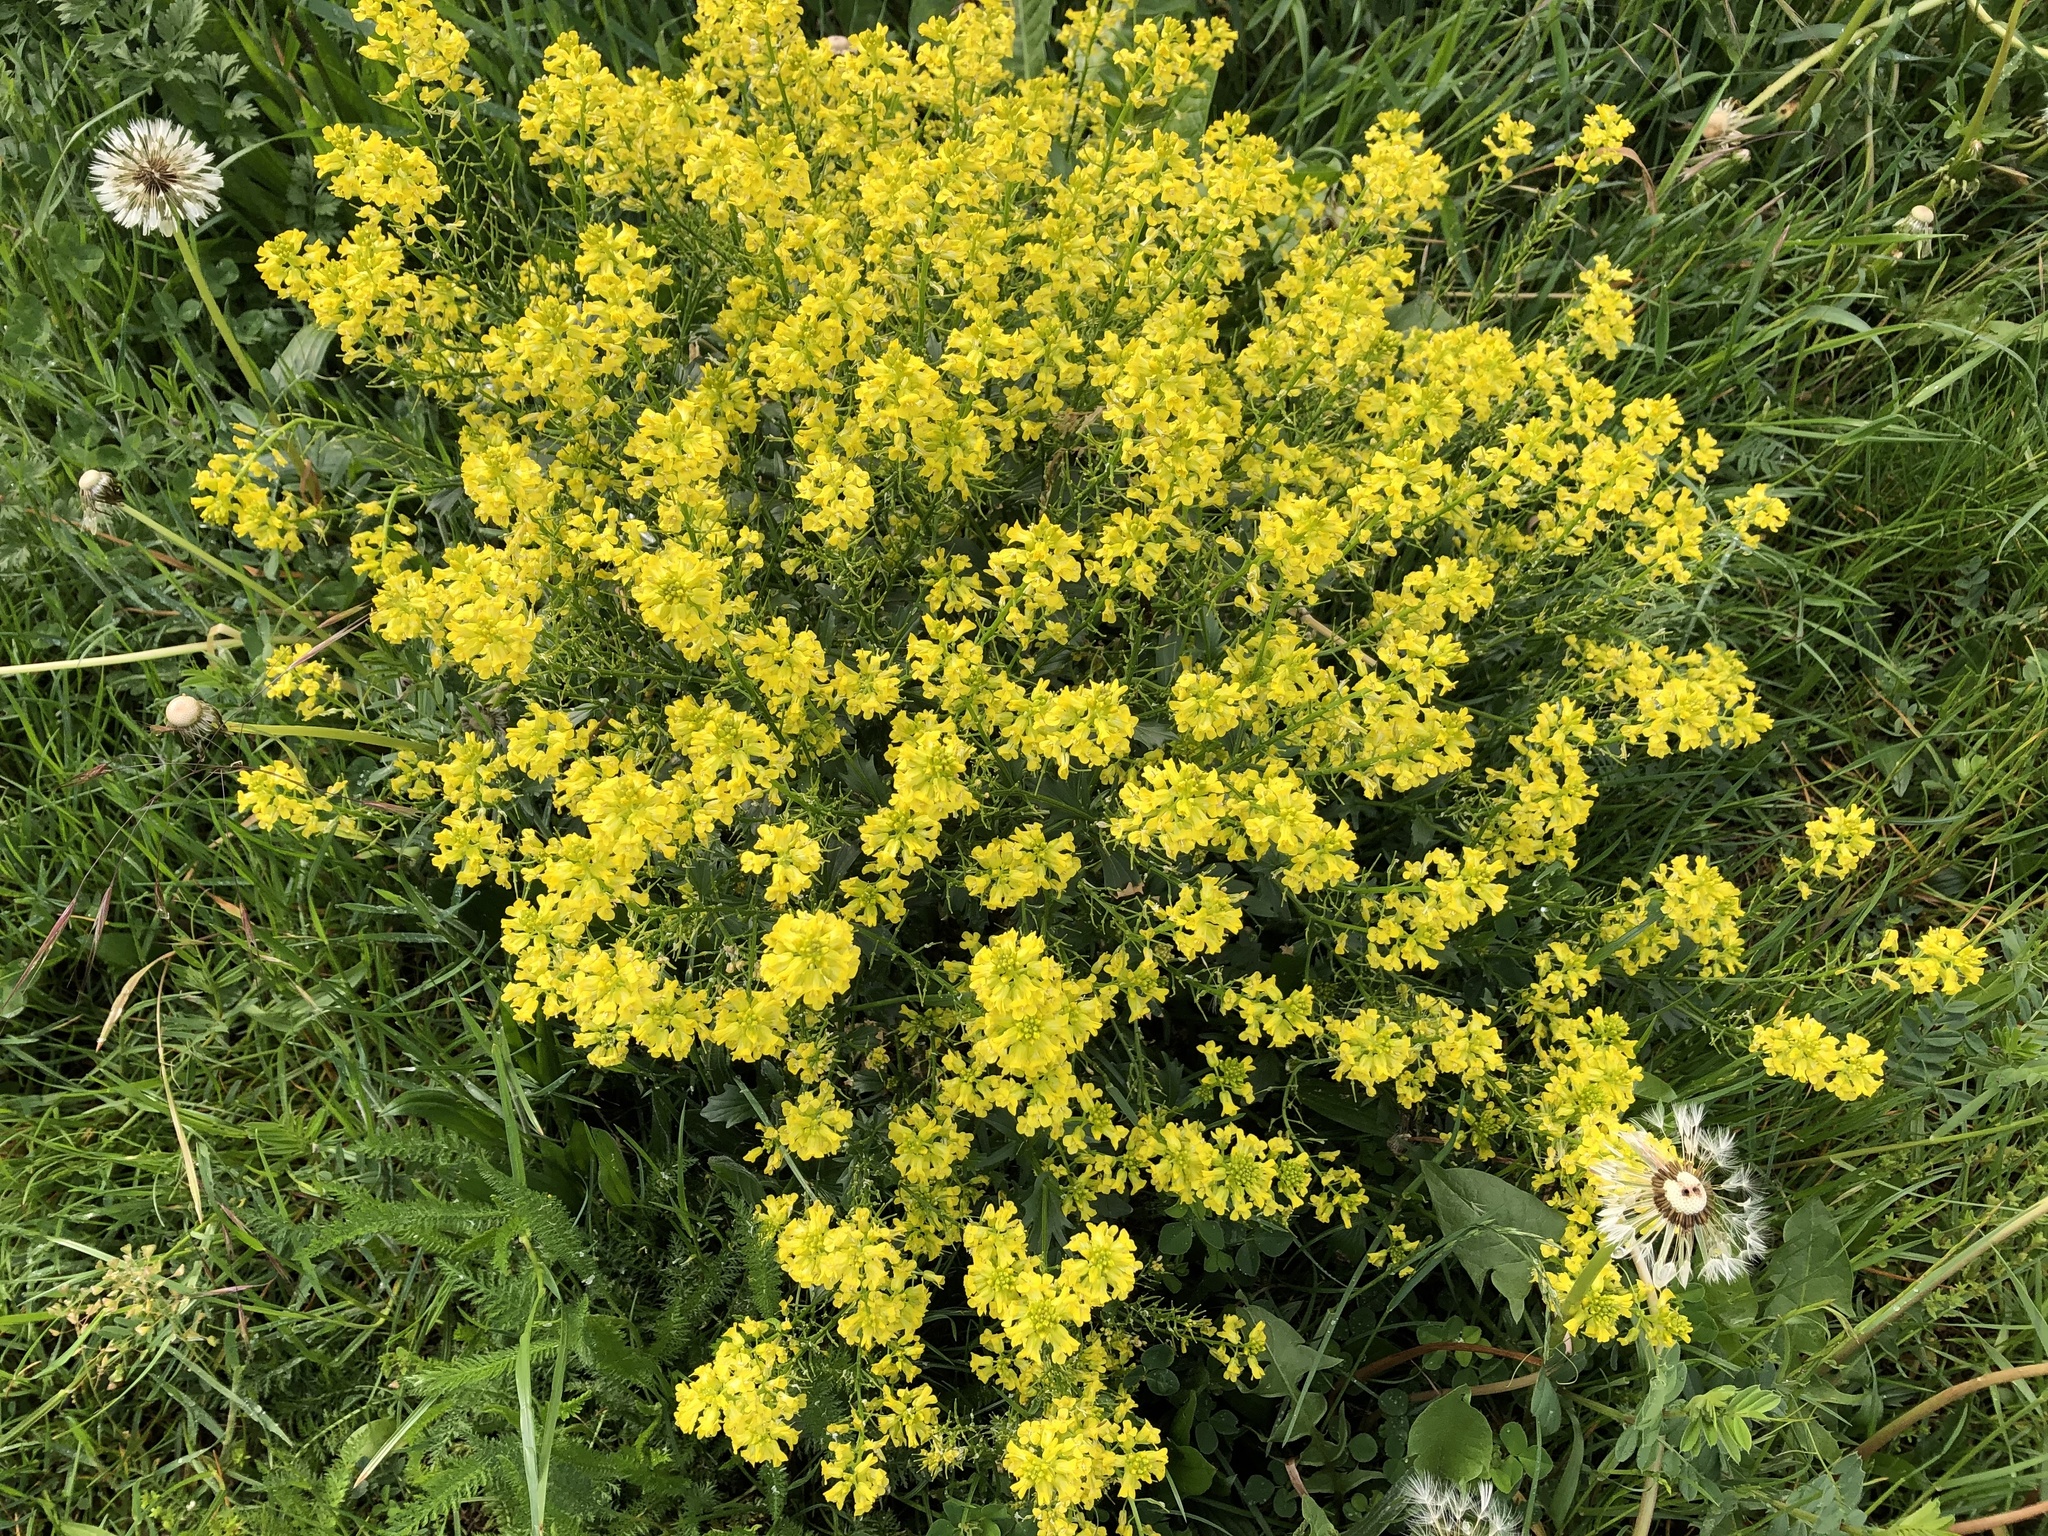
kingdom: Plantae
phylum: Tracheophyta
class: Magnoliopsida
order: Brassicales
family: Brassicaceae
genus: Barbarea
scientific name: Barbarea vulgaris
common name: Cressy-greens
